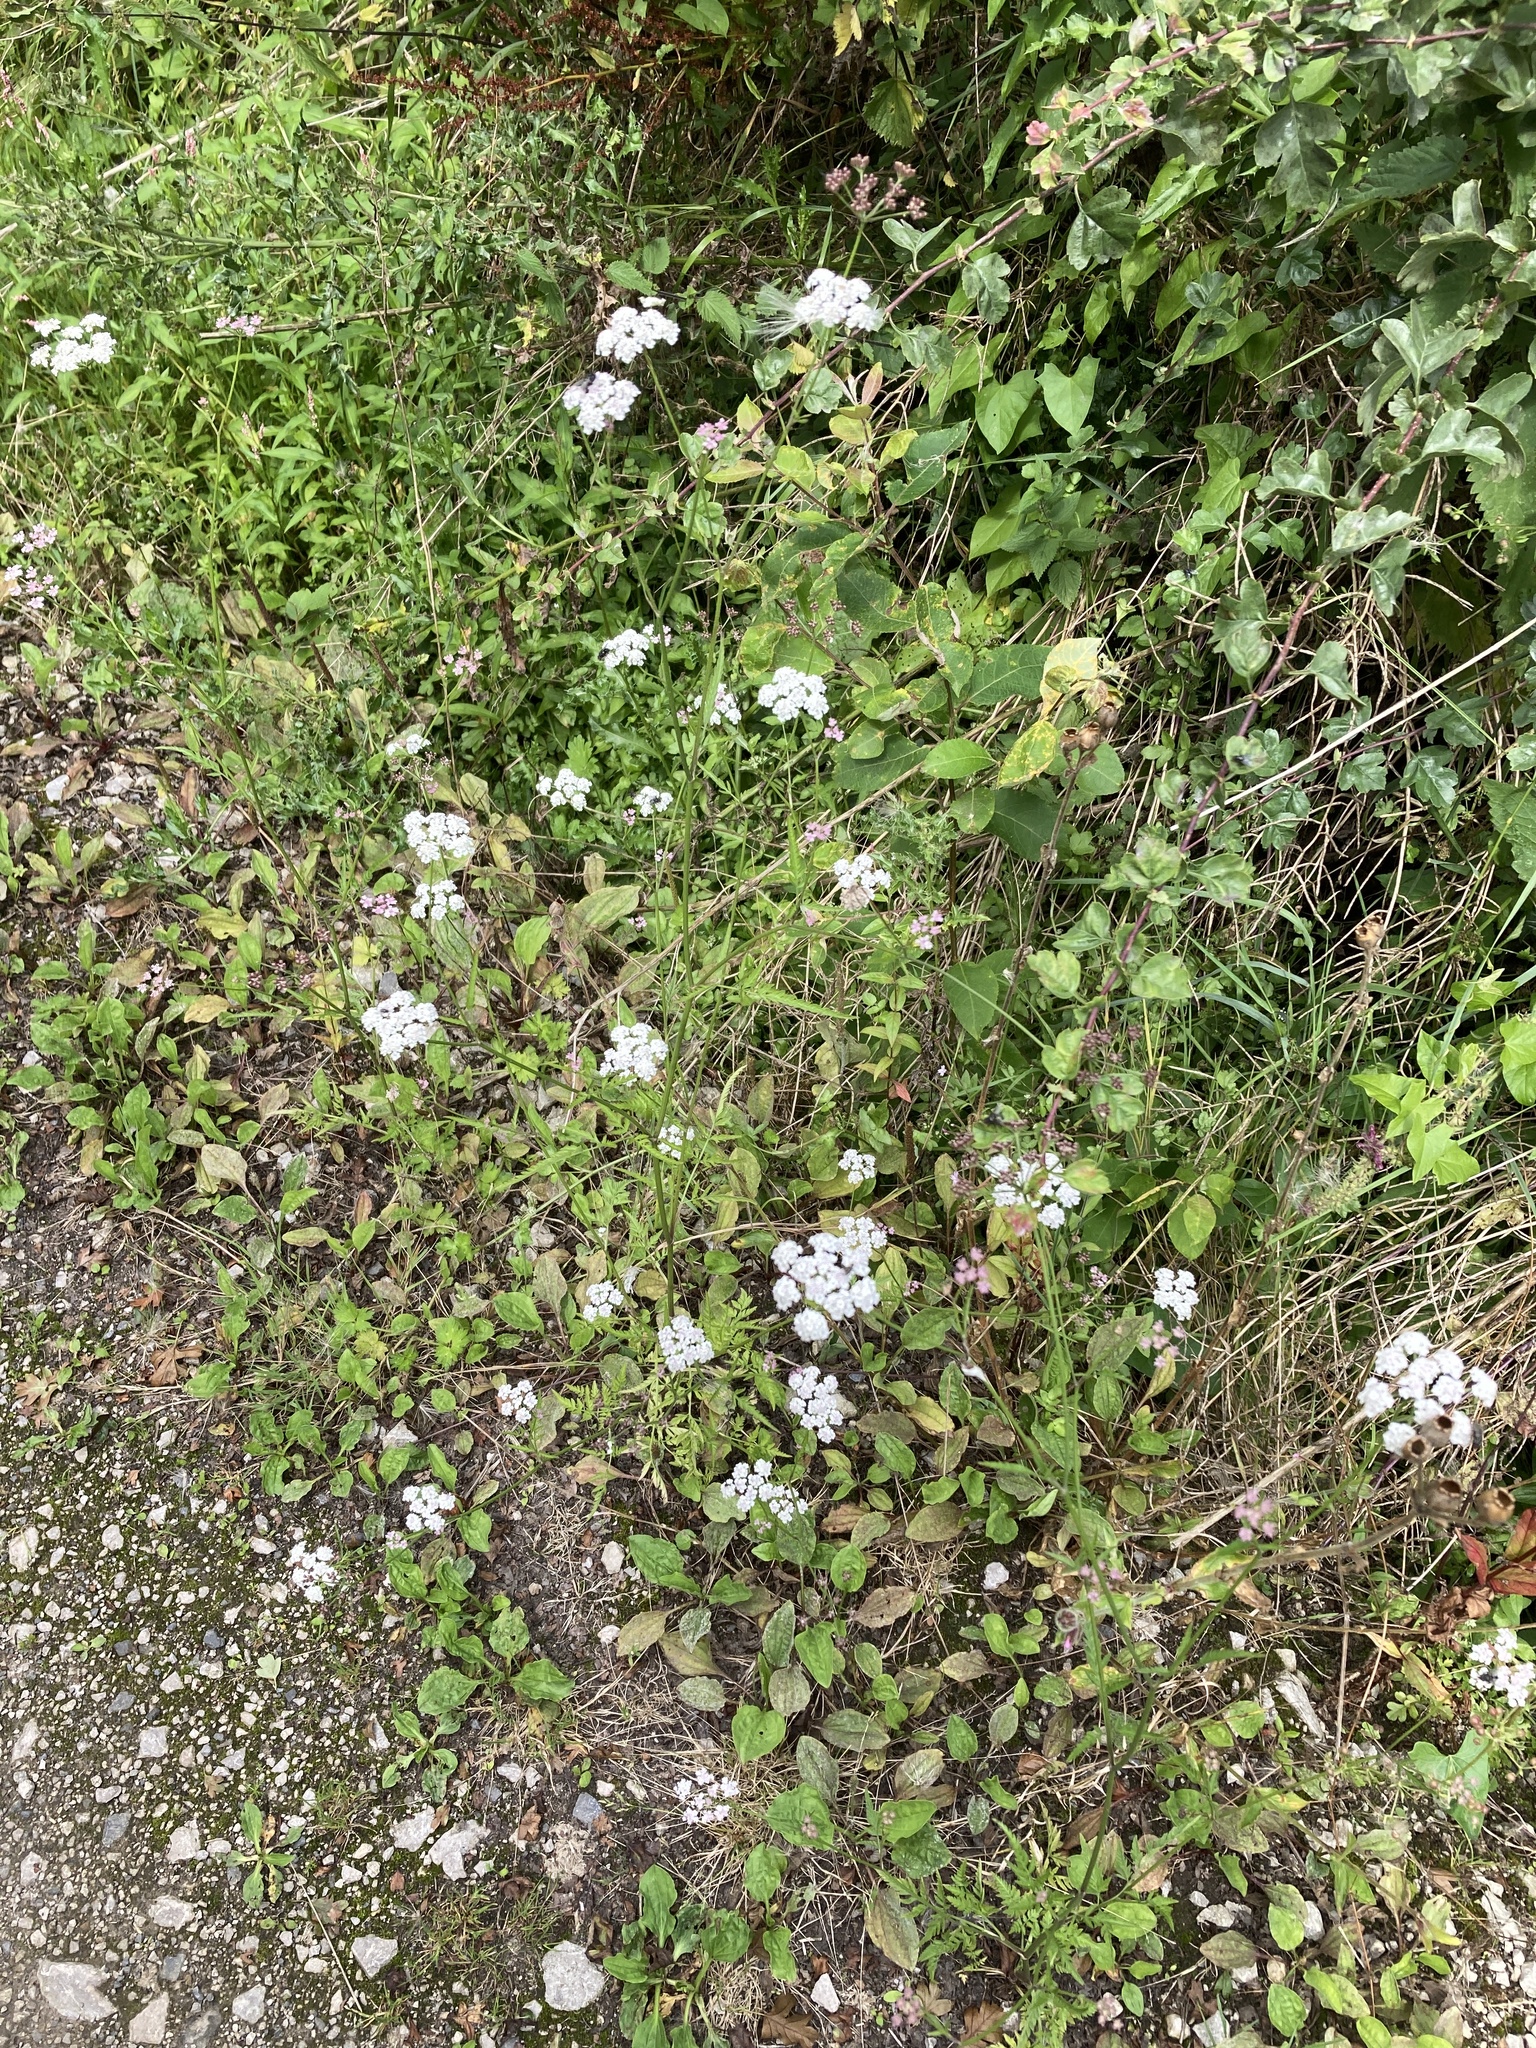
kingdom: Plantae
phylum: Tracheophyta
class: Magnoliopsida
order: Apiales
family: Apiaceae
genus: Torilis
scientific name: Torilis japonica
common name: Upright hedge-parsley
